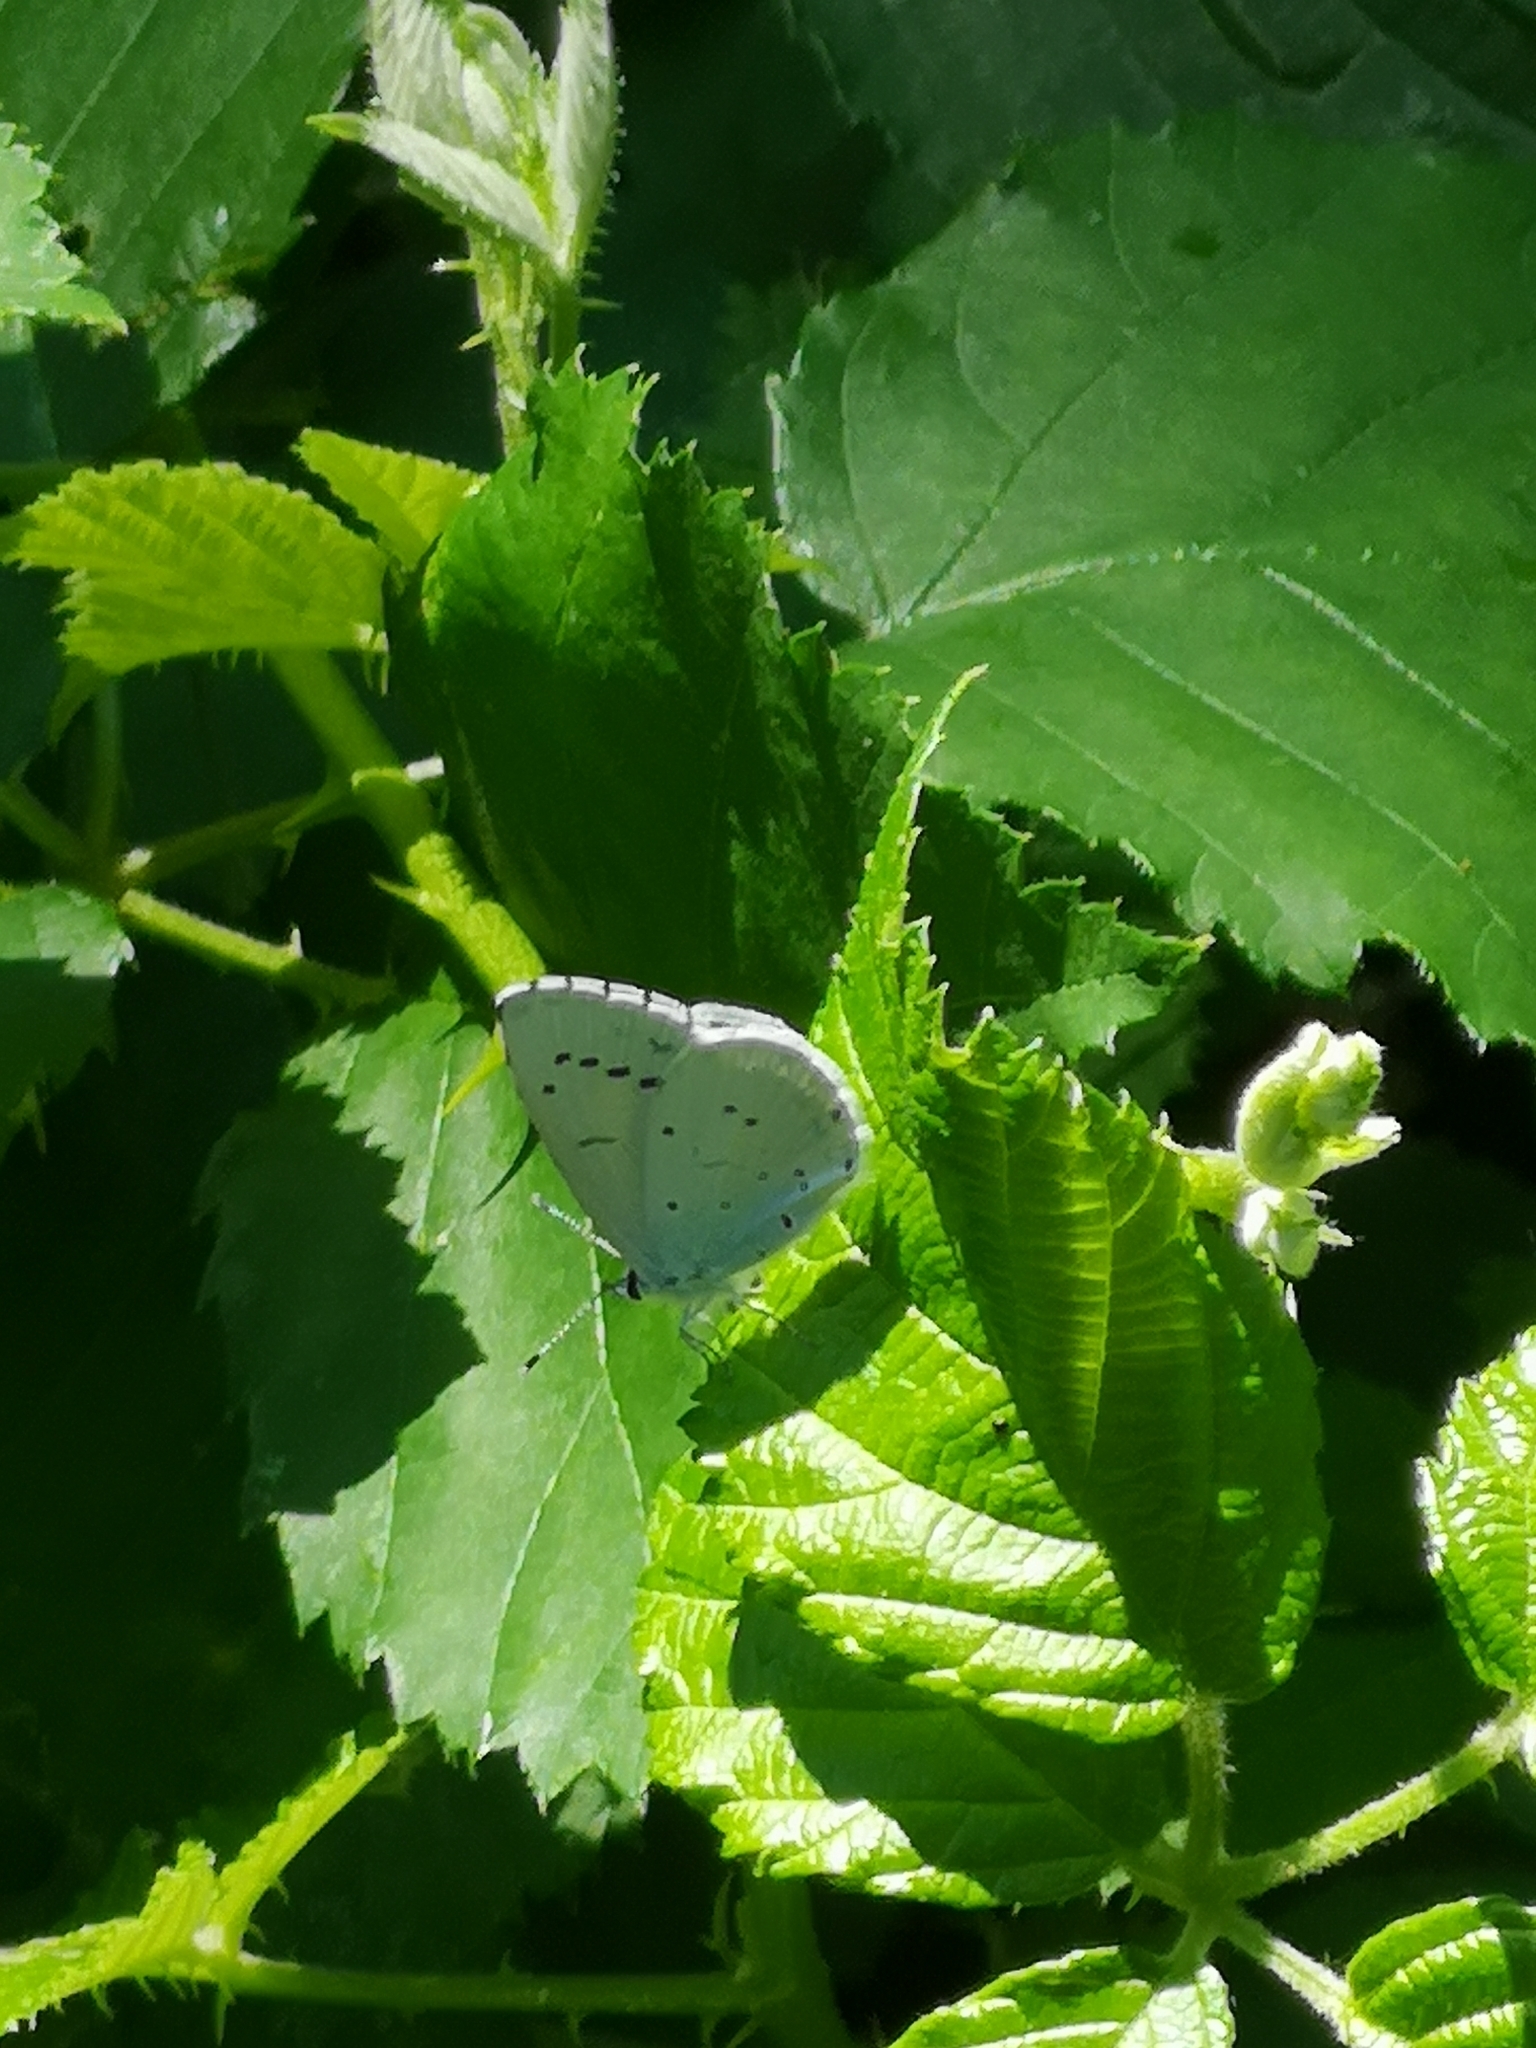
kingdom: Animalia
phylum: Arthropoda
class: Insecta
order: Lepidoptera
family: Lycaenidae
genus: Celastrina
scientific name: Celastrina argiolus
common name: Holly blue
